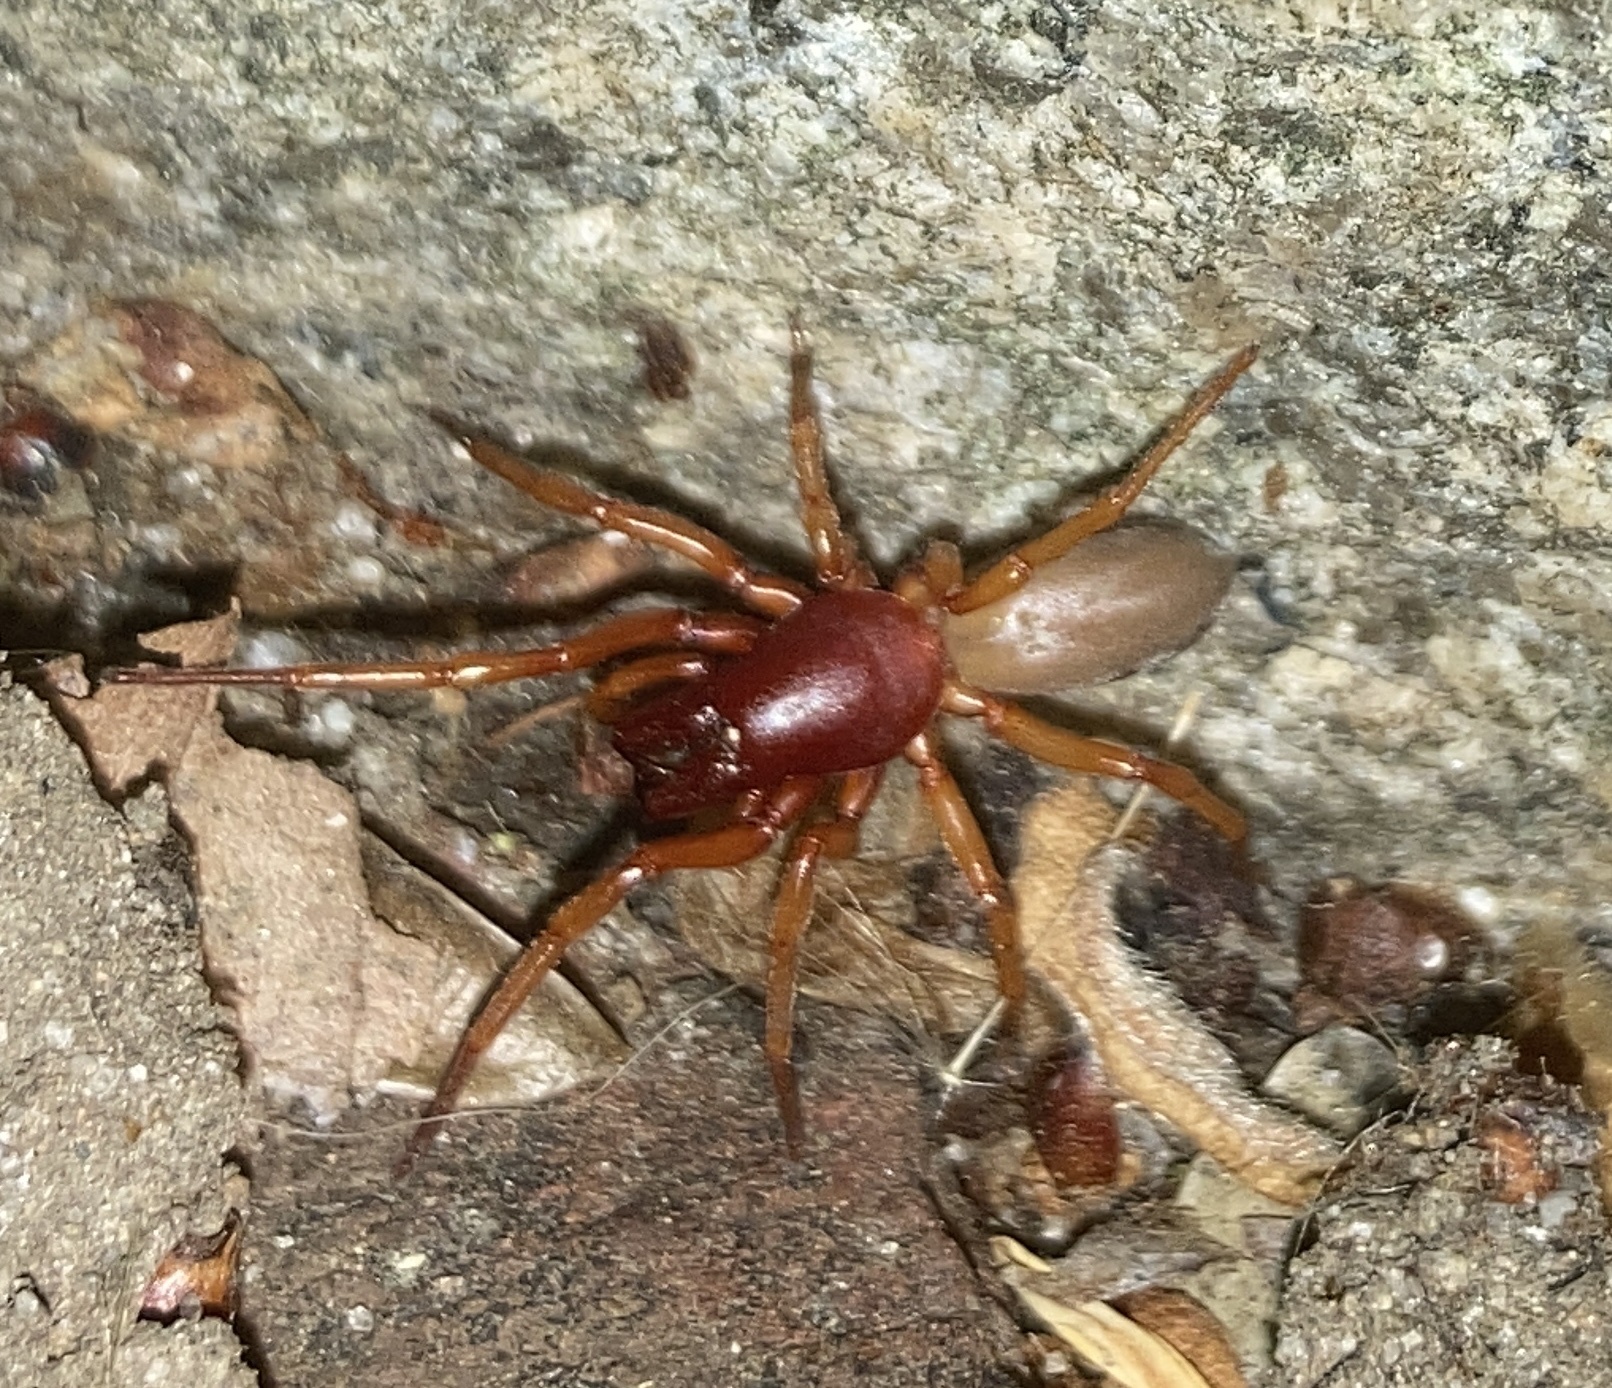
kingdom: Animalia
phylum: Arthropoda
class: Arachnida
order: Araneae
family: Dysderidae
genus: Dysdera
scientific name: Dysdera crocata
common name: Woodlouse spider
